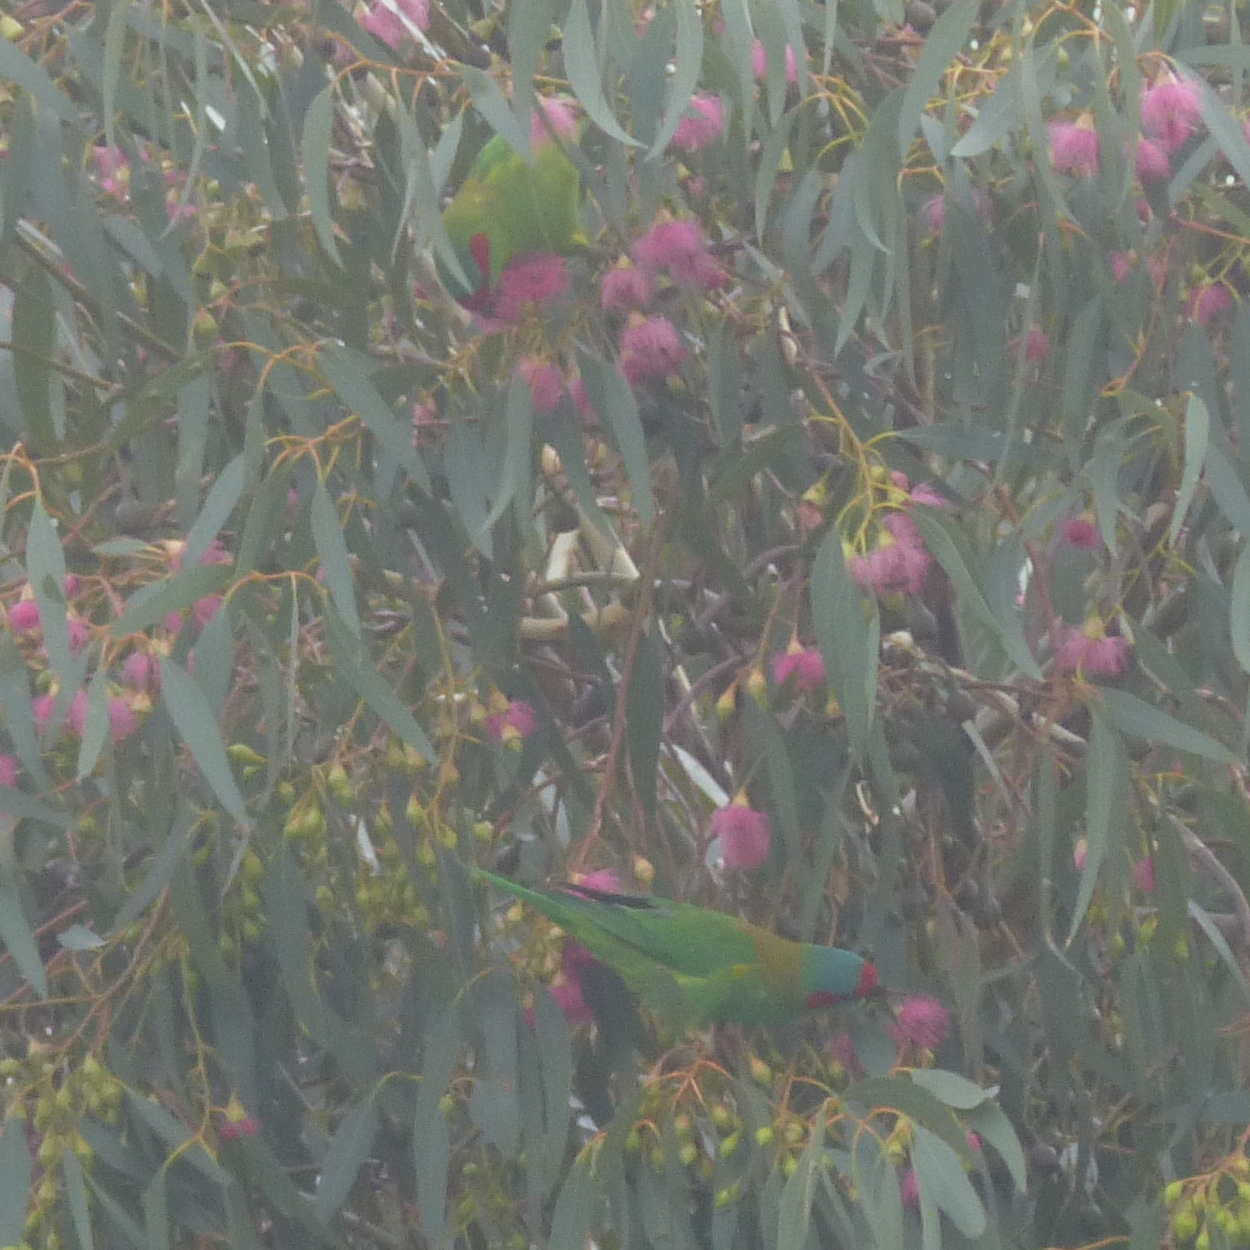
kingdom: Animalia
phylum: Chordata
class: Aves
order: Psittaciformes
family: Psittacidae
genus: Glossopsitta
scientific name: Glossopsitta concinna
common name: Musk lorikeet
